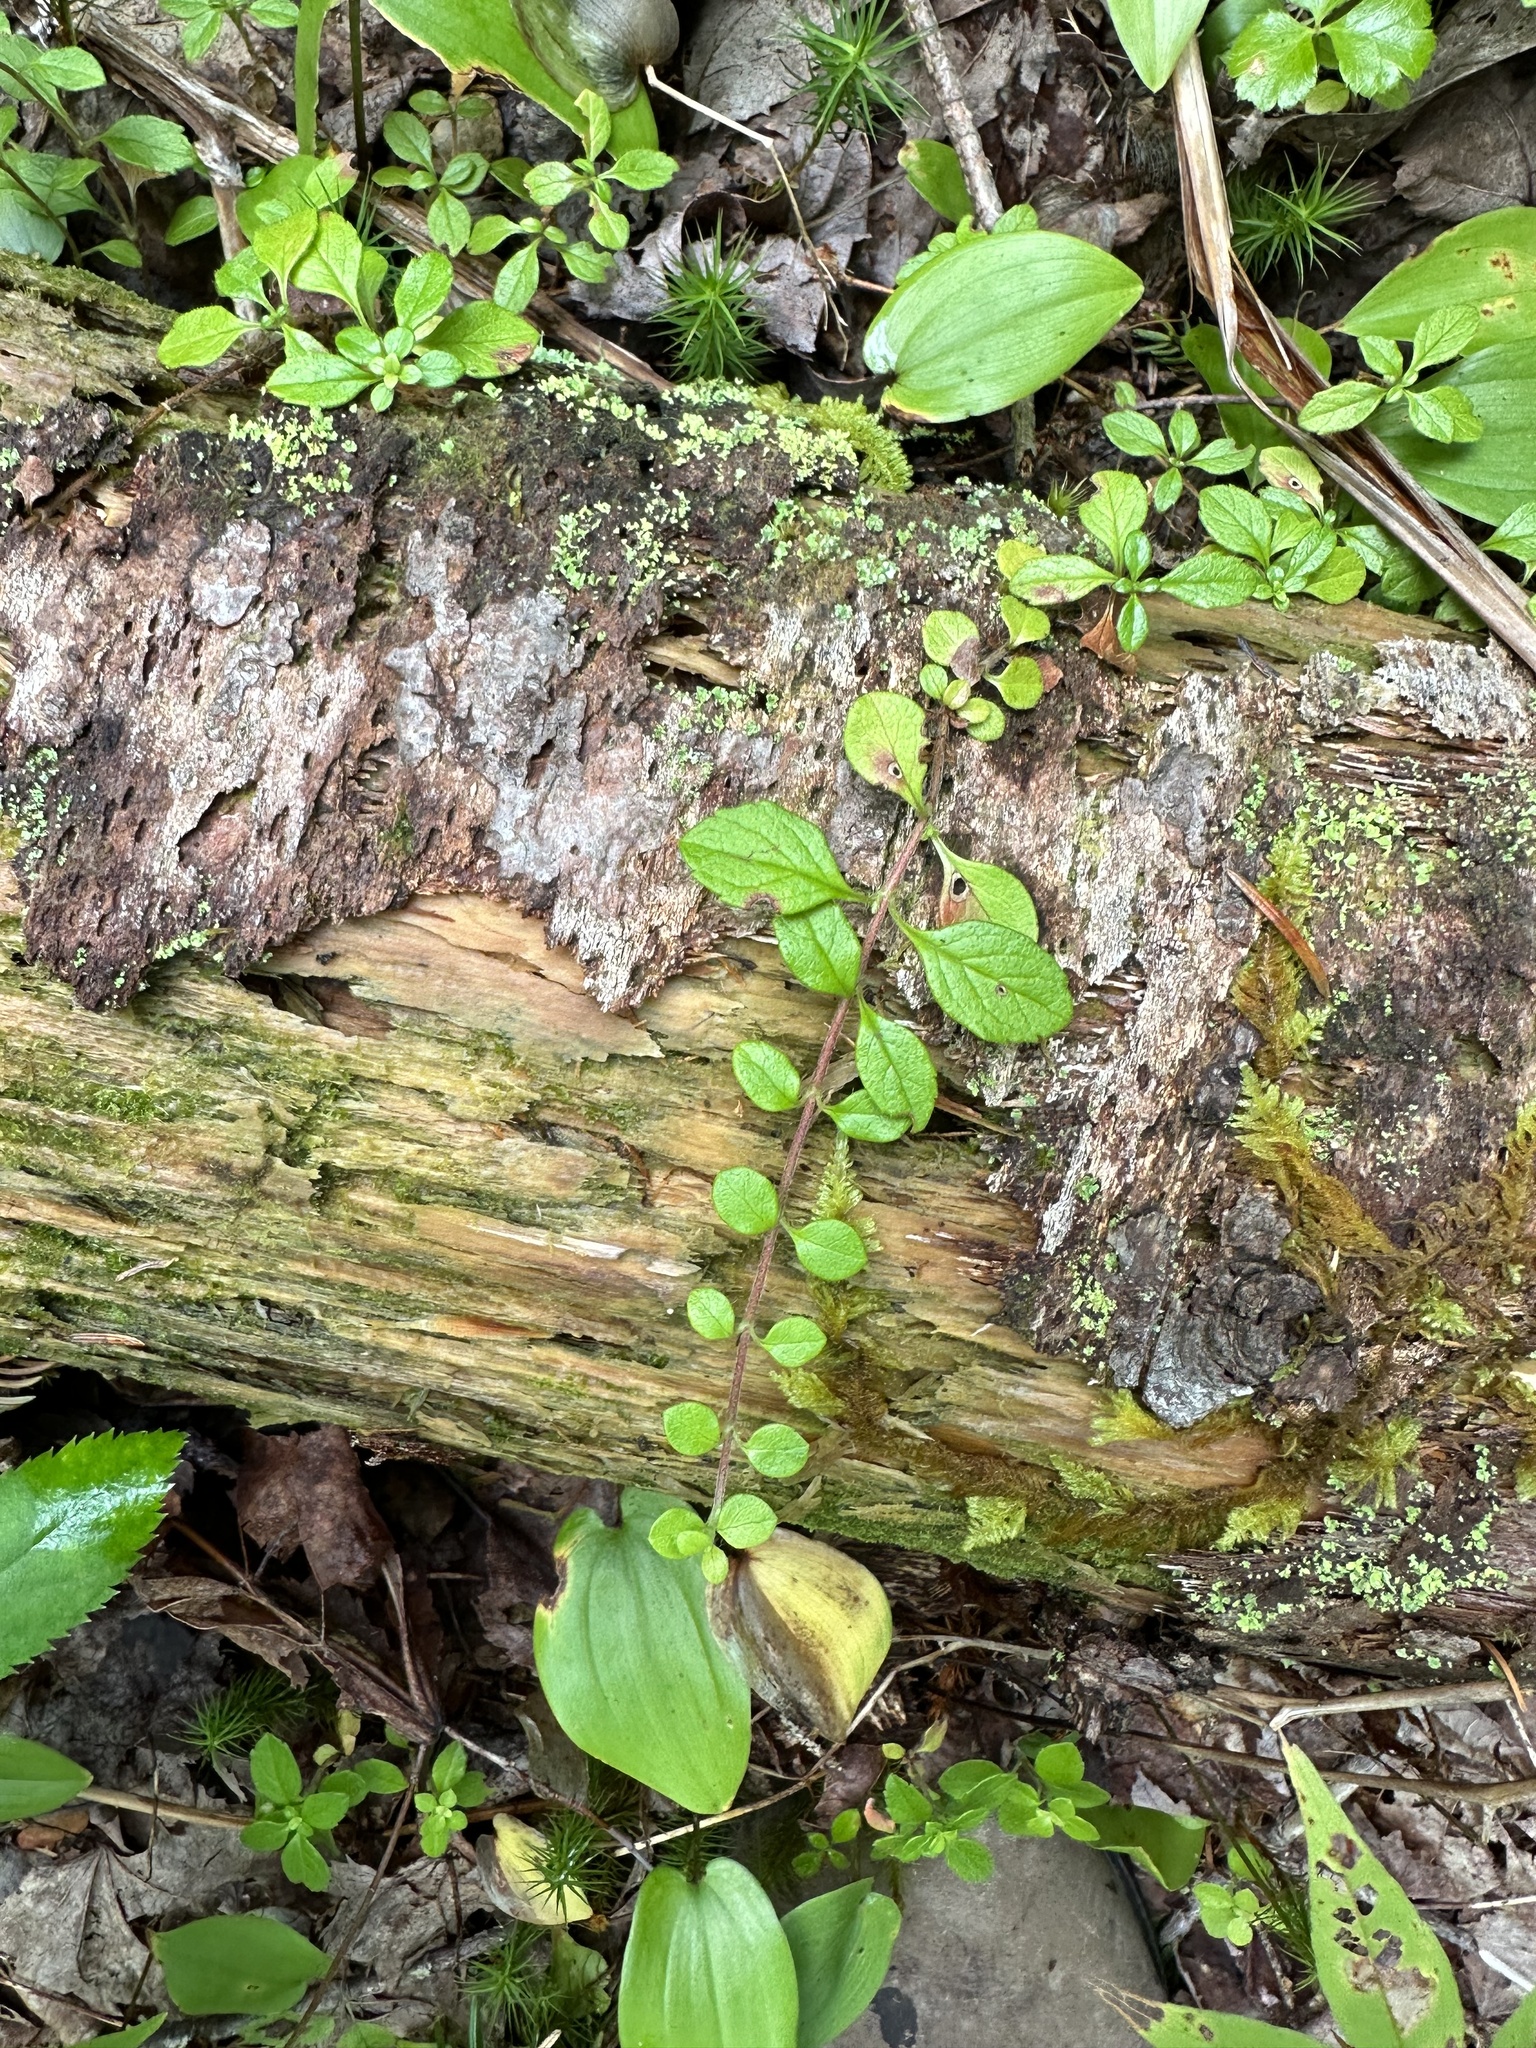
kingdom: Plantae
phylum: Tracheophyta
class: Magnoliopsida
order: Dipsacales
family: Caprifoliaceae
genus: Linnaea
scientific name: Linnaea borealis
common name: Twinflower
